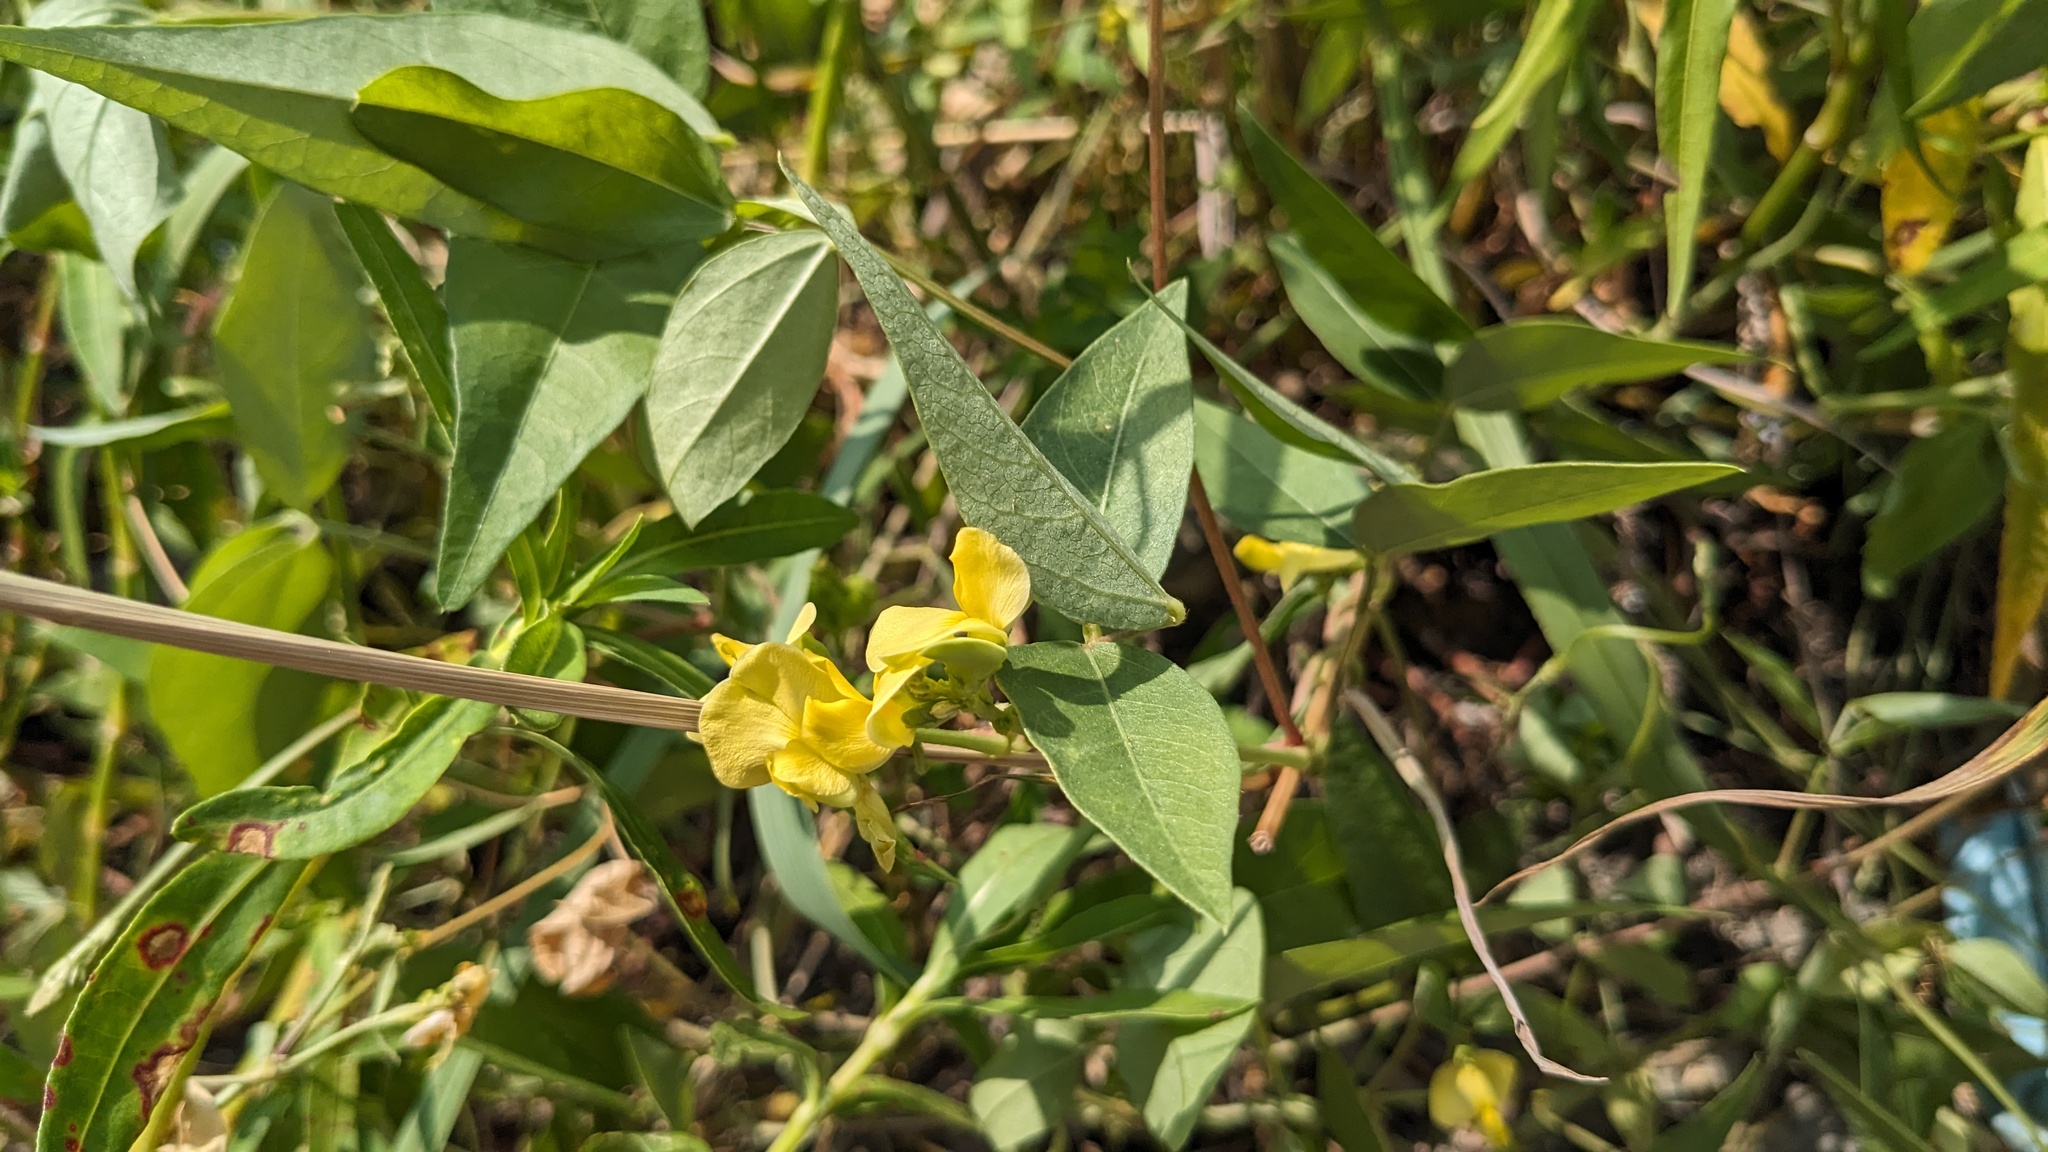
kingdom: Plantae
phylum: Tracheophyta
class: Magnoliopsida
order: Fabales
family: Fabaceae
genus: Vigna
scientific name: Vigna luteola
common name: Hairypod cowpea
